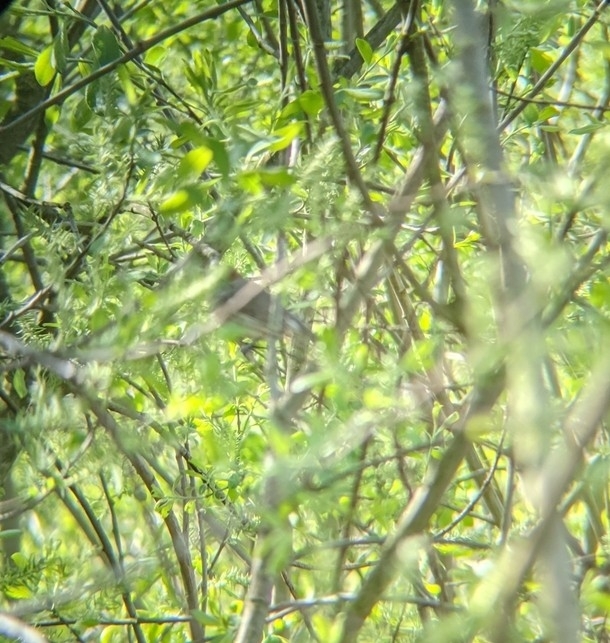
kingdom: Animalia
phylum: Chordata
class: Aves
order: Passeriformes
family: Sylviidae
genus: Sylvia
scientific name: Sylvia atricapilla
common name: Eurasian blackcap
